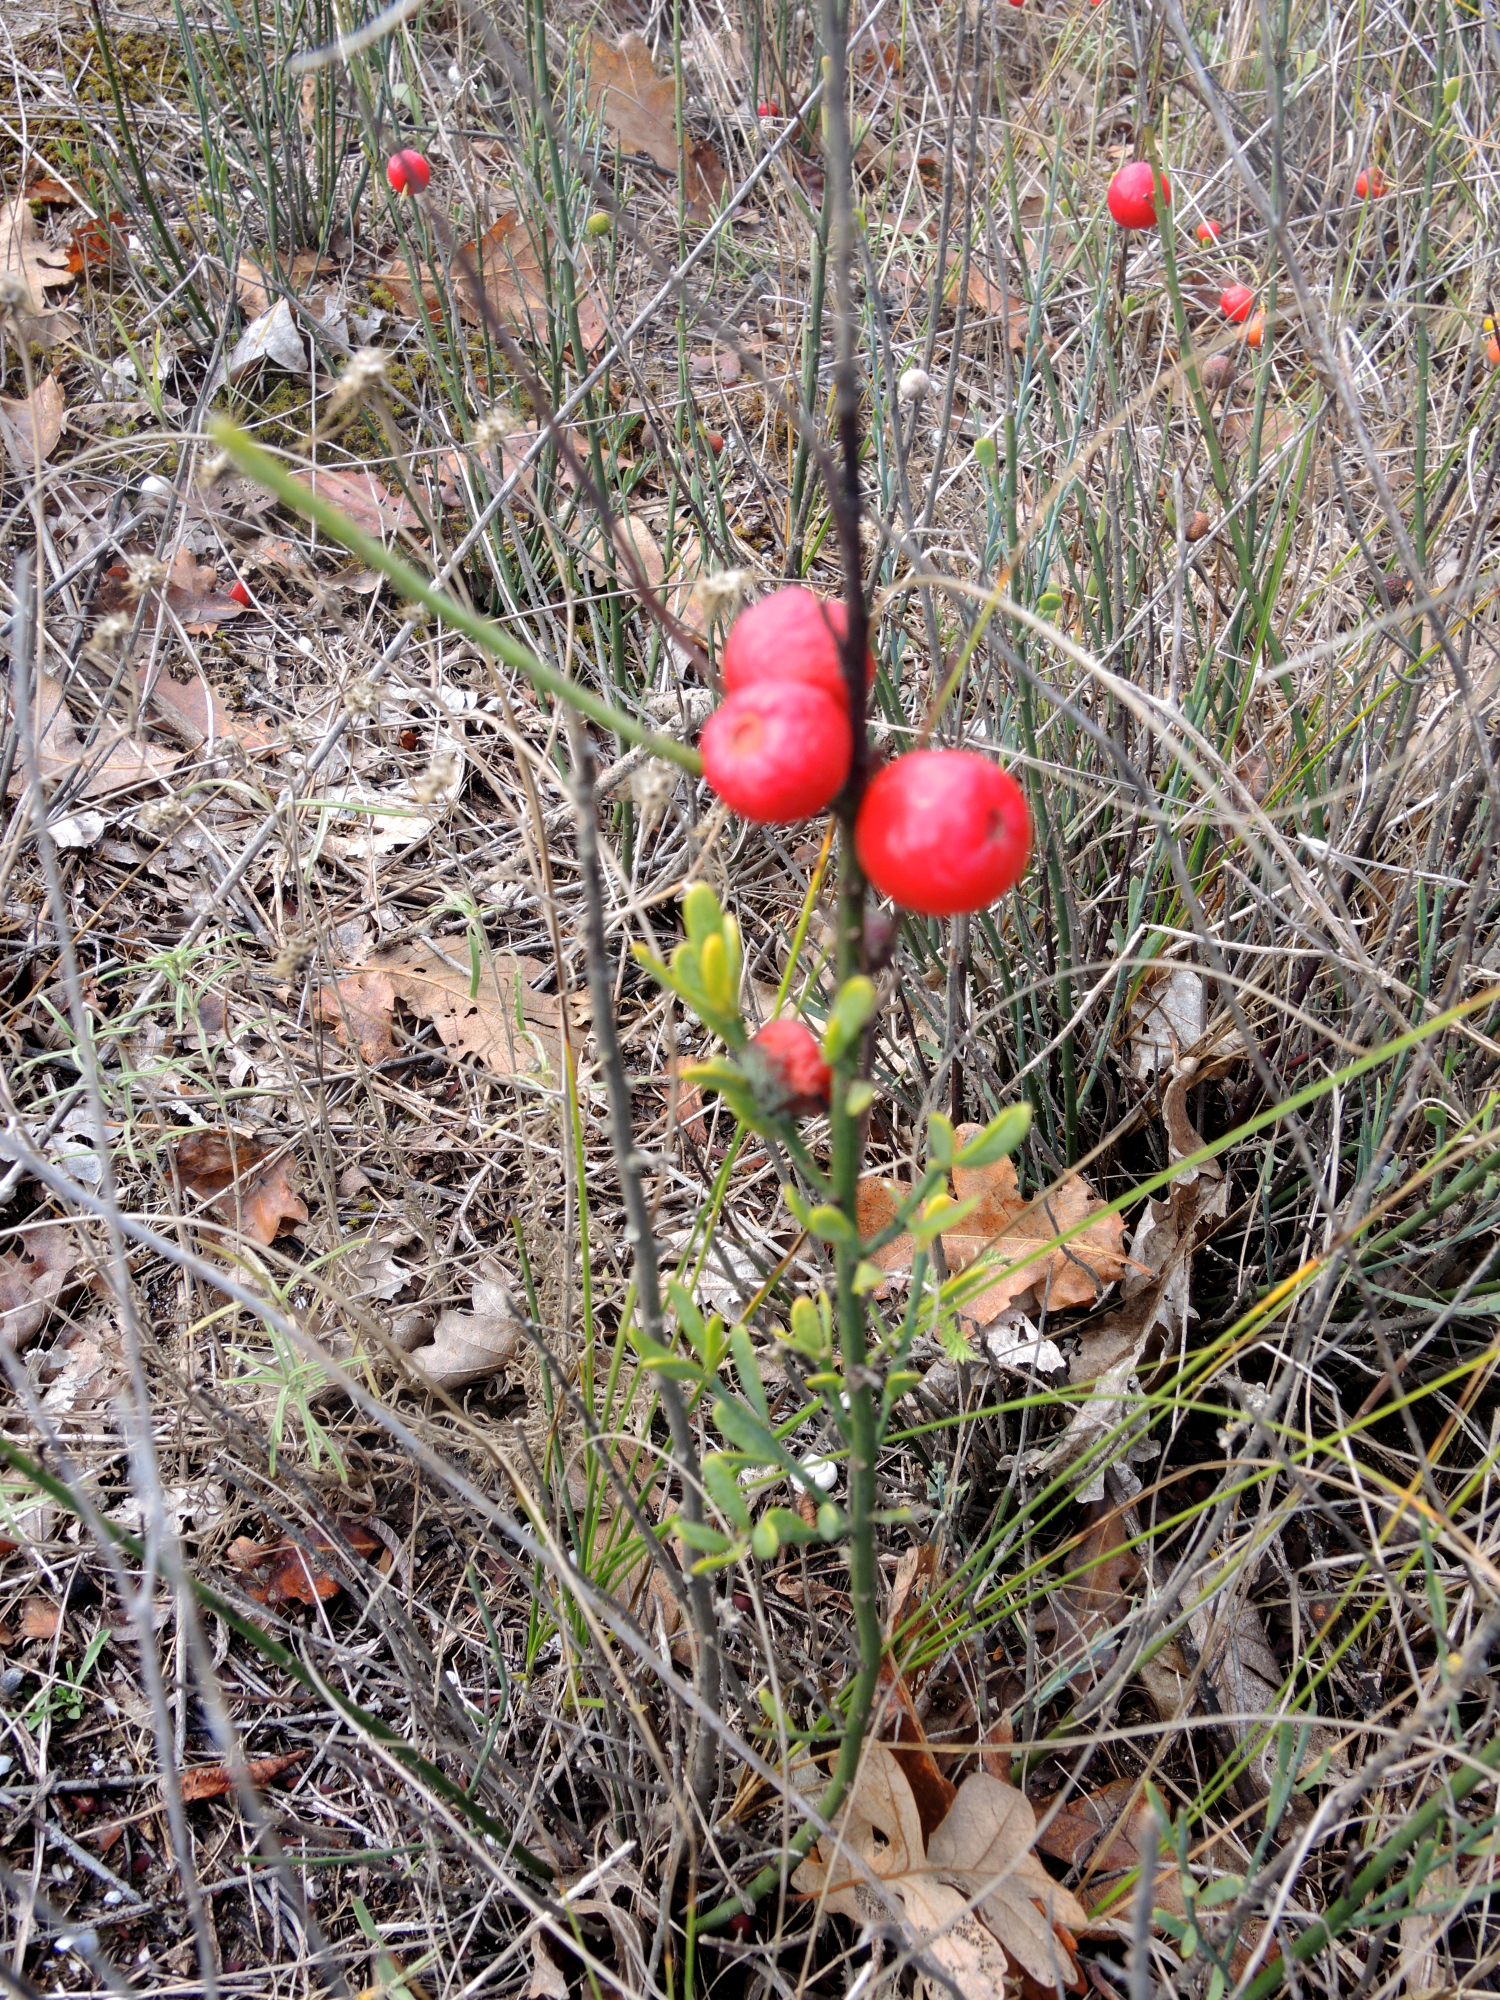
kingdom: Plantae
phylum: Tracheophyta
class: Magnoliopsida
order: Santalales
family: Santalaceae
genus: Osyris
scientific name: Osyris alba
